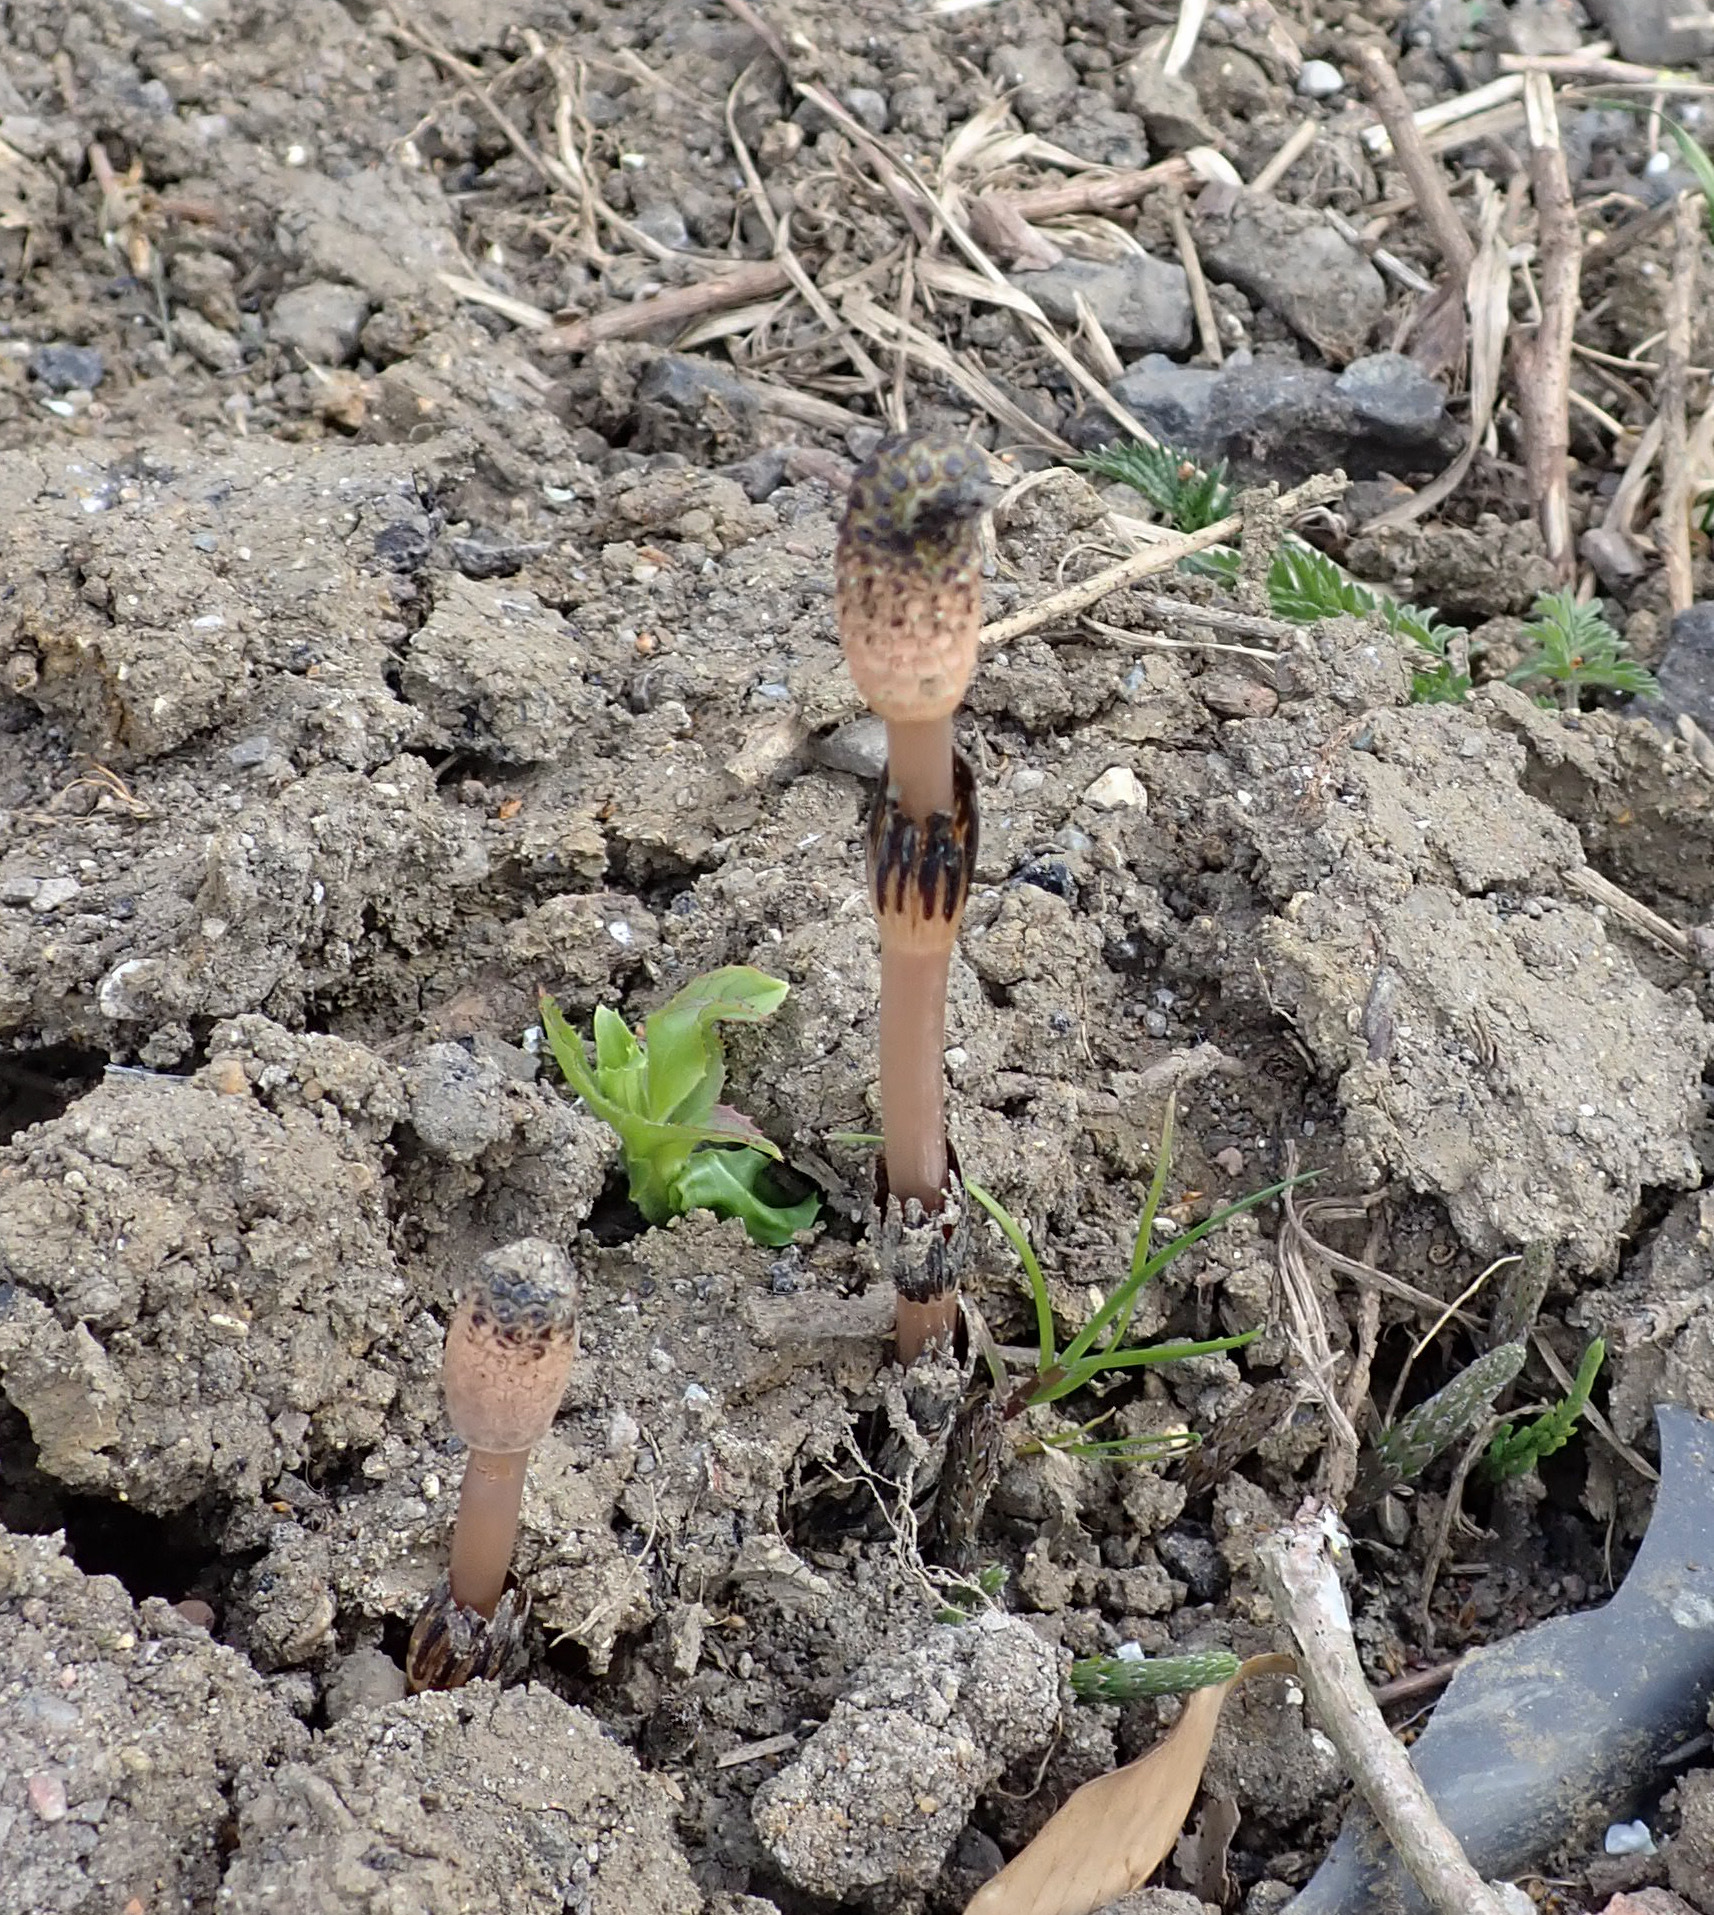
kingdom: Plantae
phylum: Tracheophyta
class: Polypodiopsida
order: Equisetales
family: Equisetaceae
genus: Equisetum
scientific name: Equisetum arvense
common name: Field horsetail
